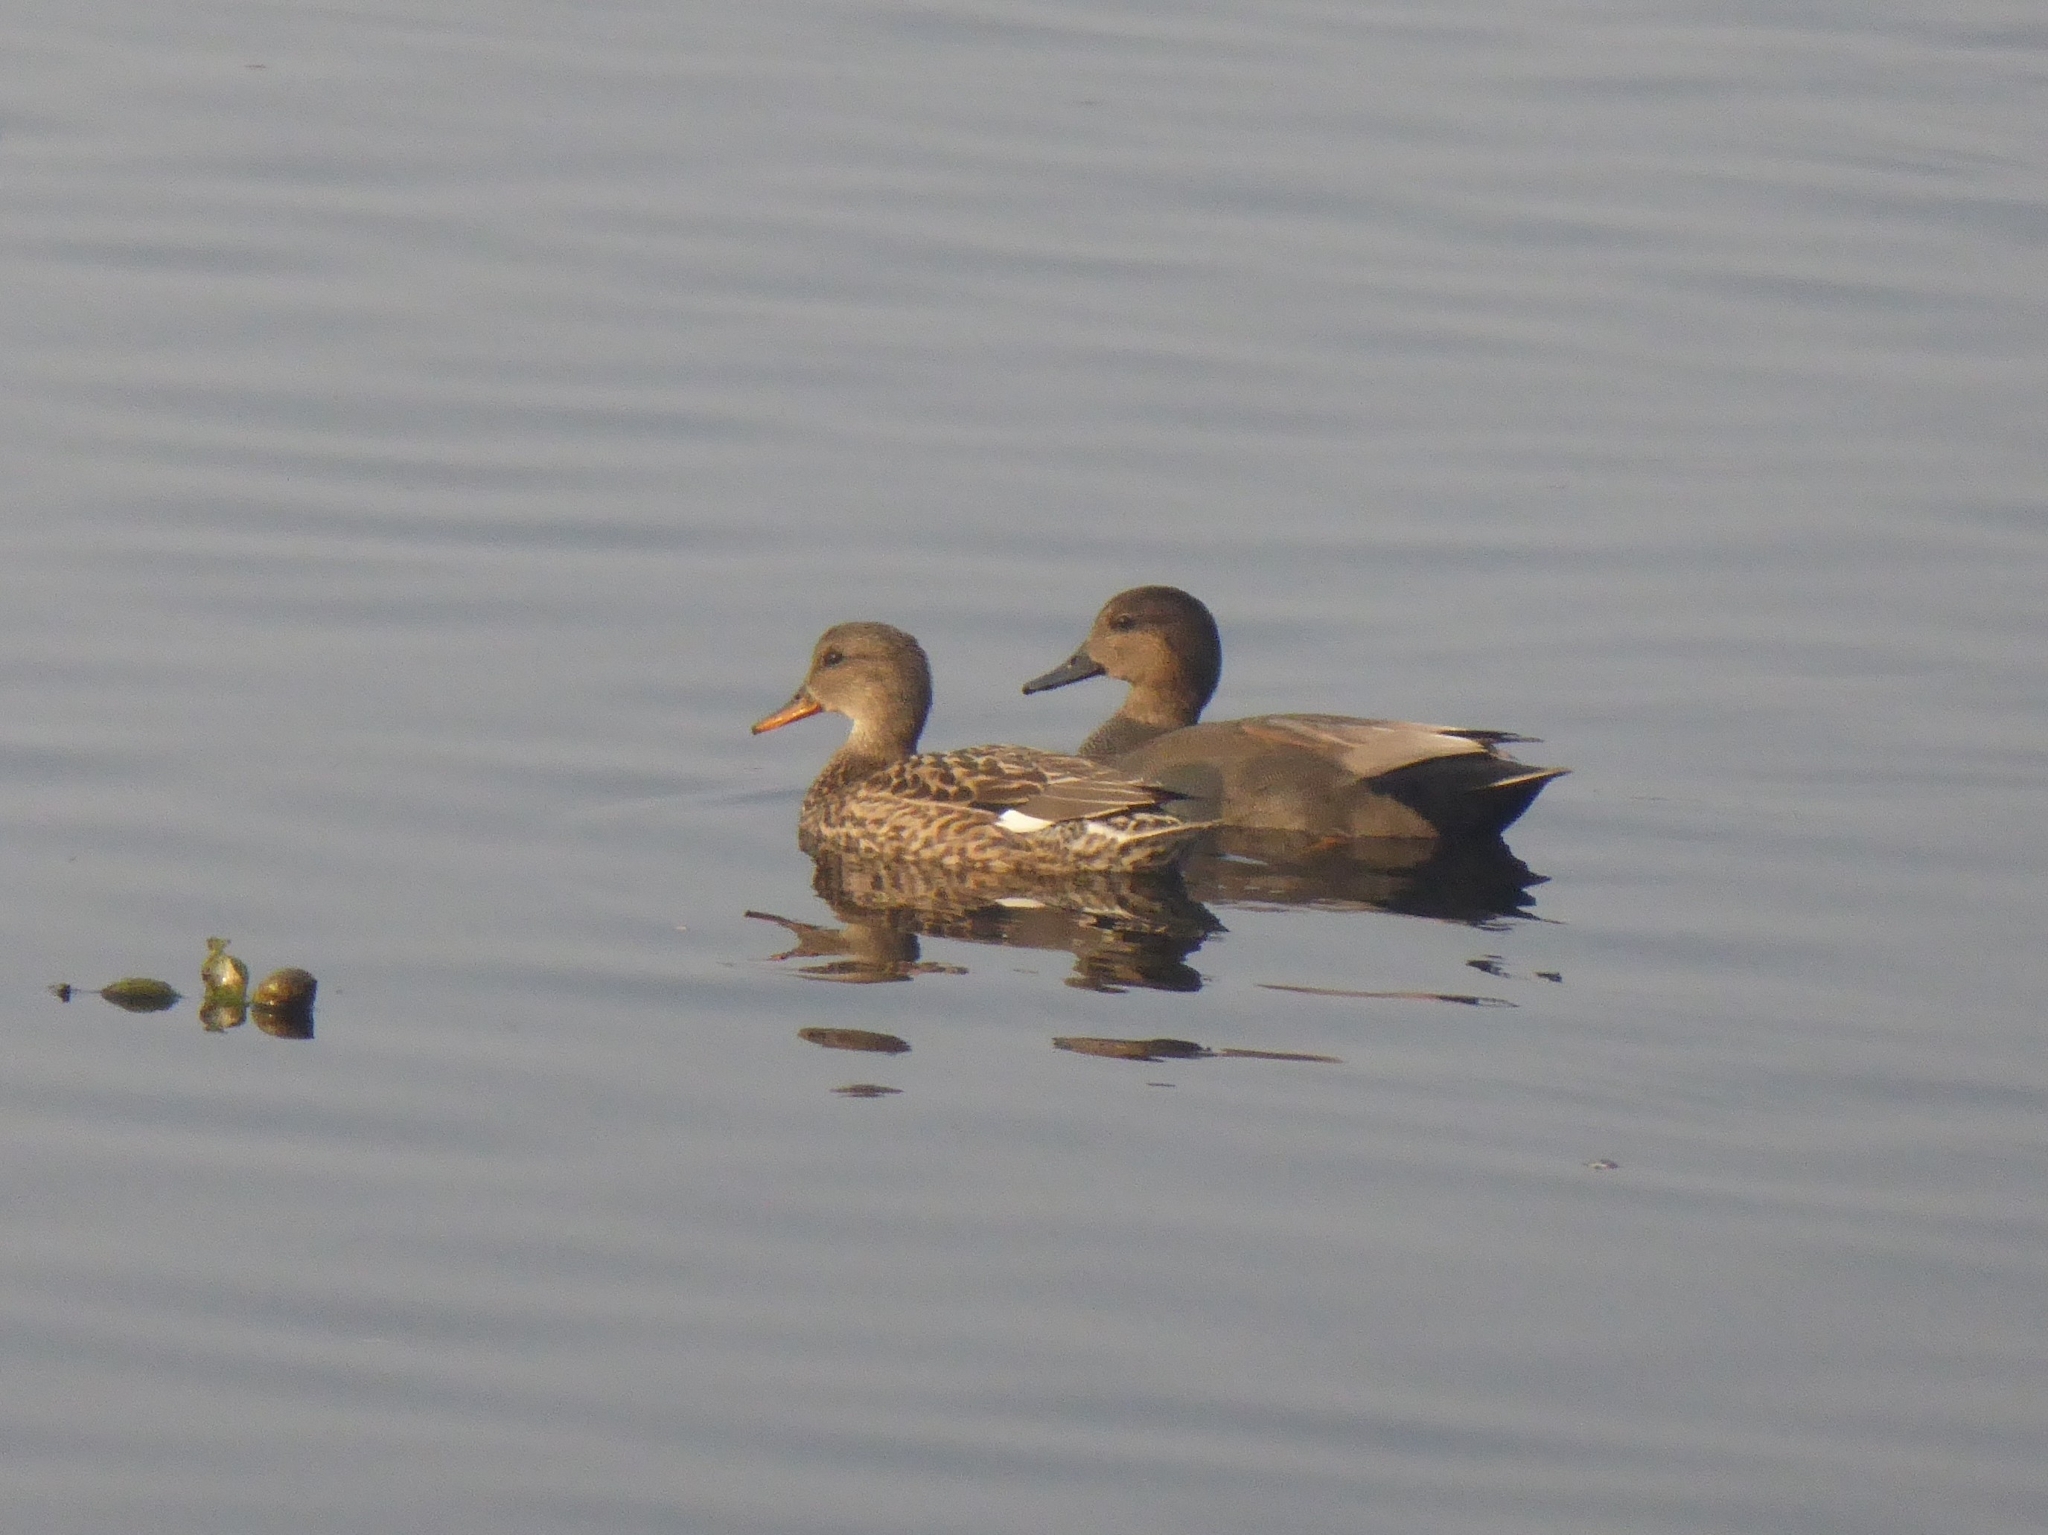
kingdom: Animalia
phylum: Chordata
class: Aves
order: Anseriformes
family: Anatidae
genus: Mareca
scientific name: Mareca strepera
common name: Gadwall
